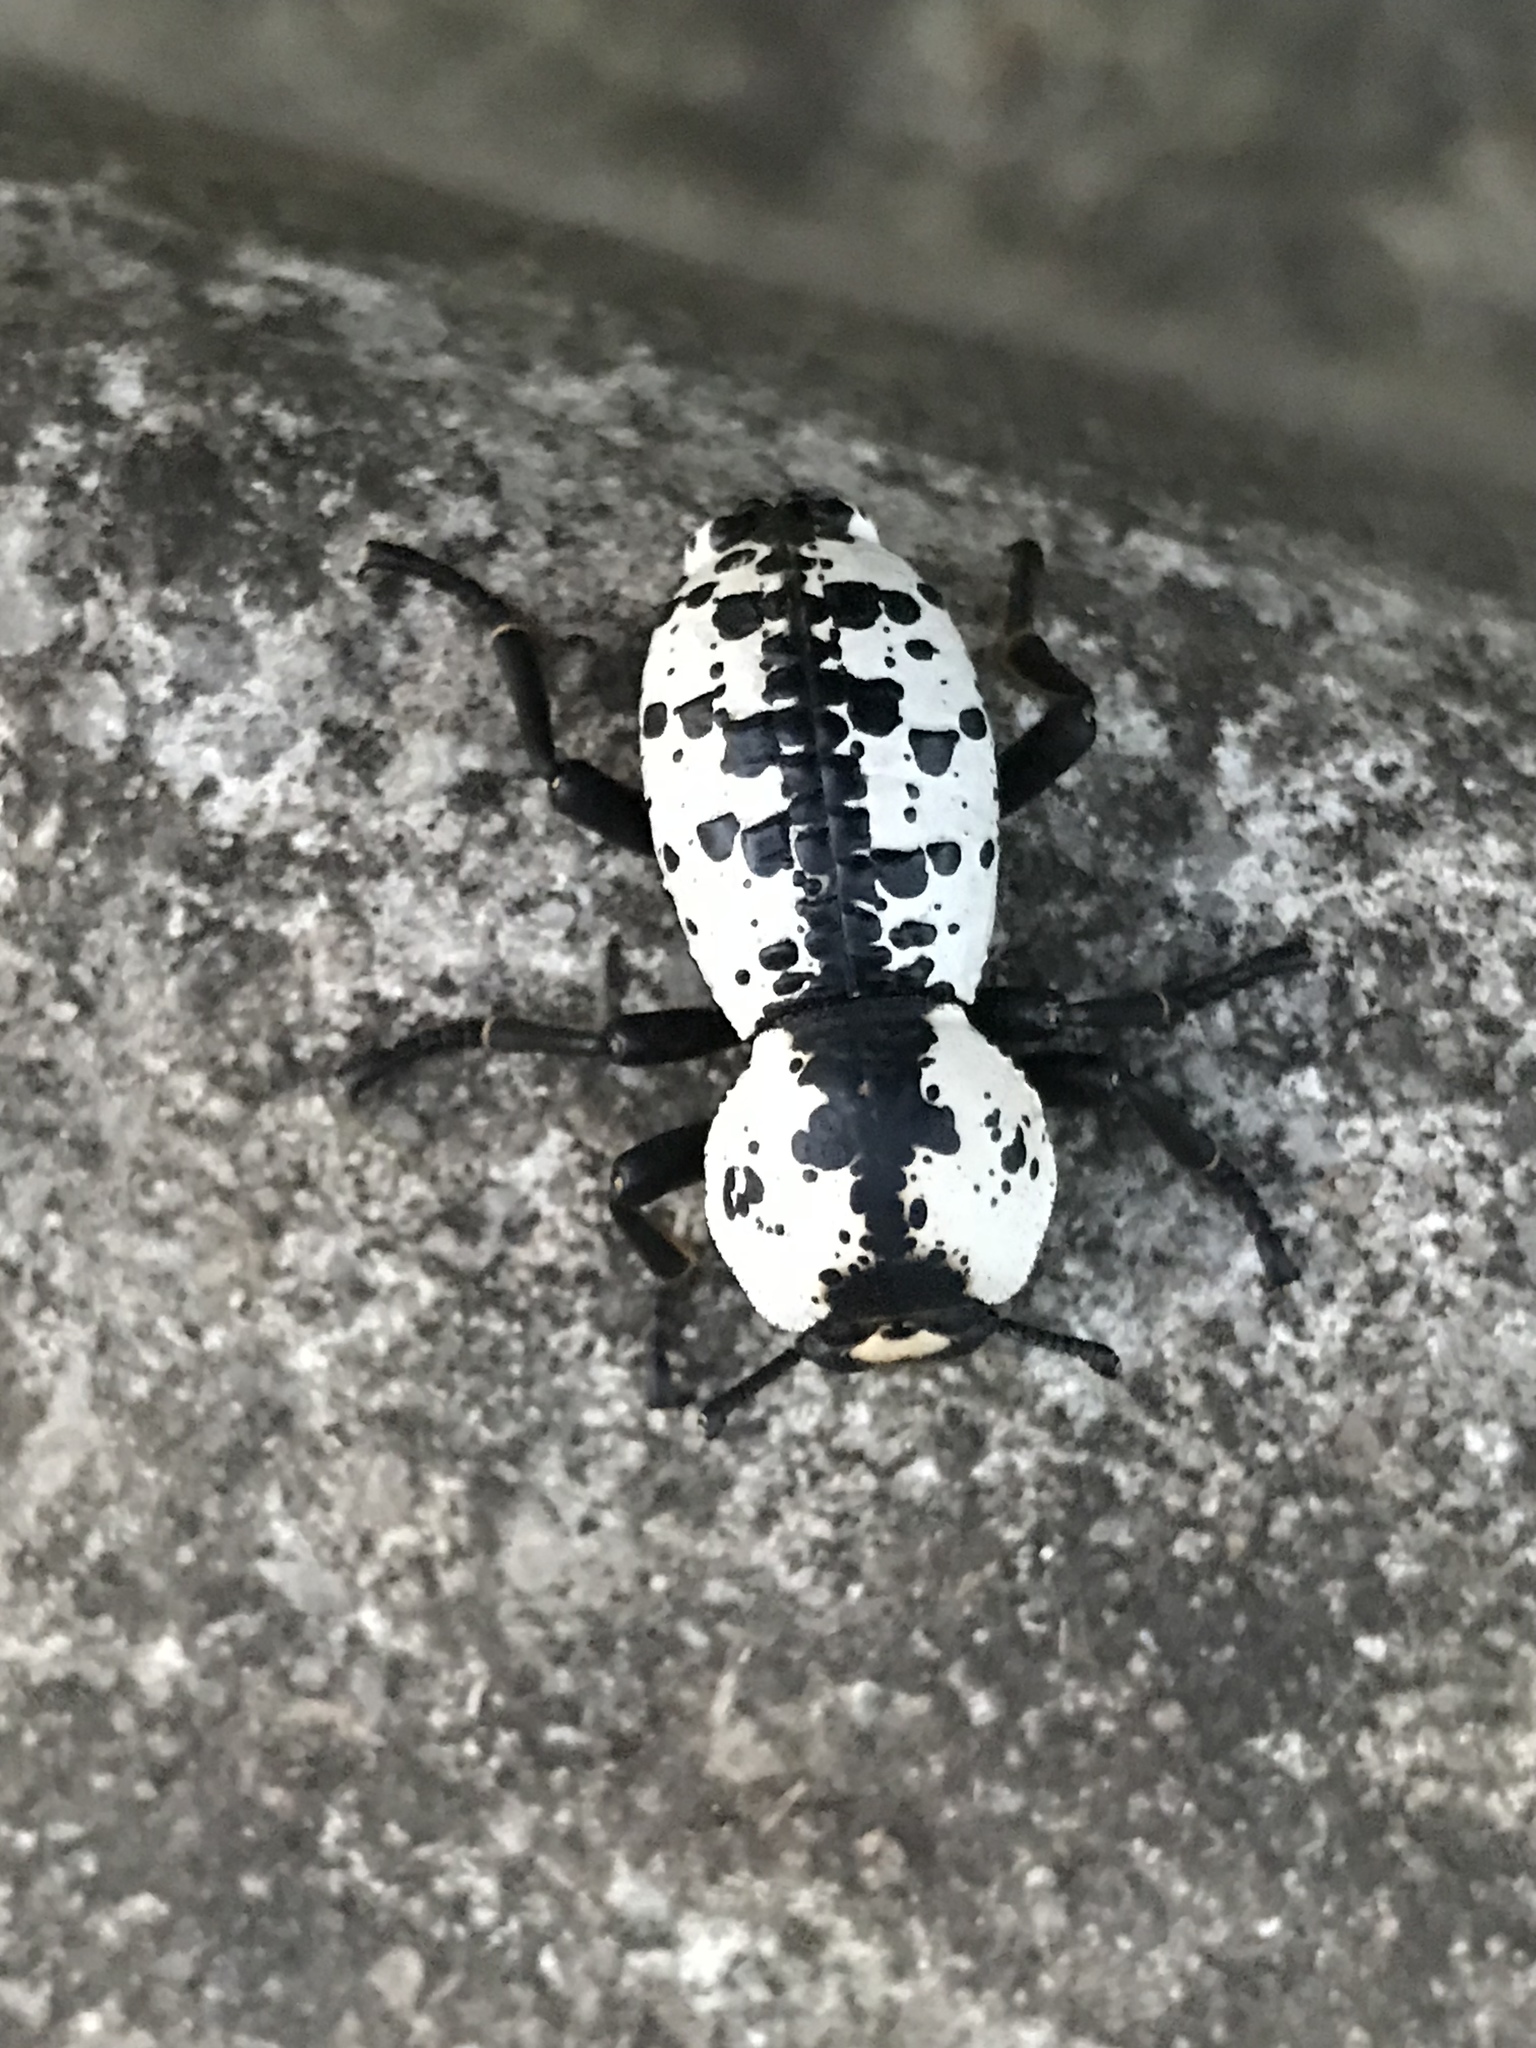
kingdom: Animalia
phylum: Arthropoda
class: Insecta
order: Coleoptera
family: Zopheridae
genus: Zopherus
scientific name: Zopherus nodulosus
